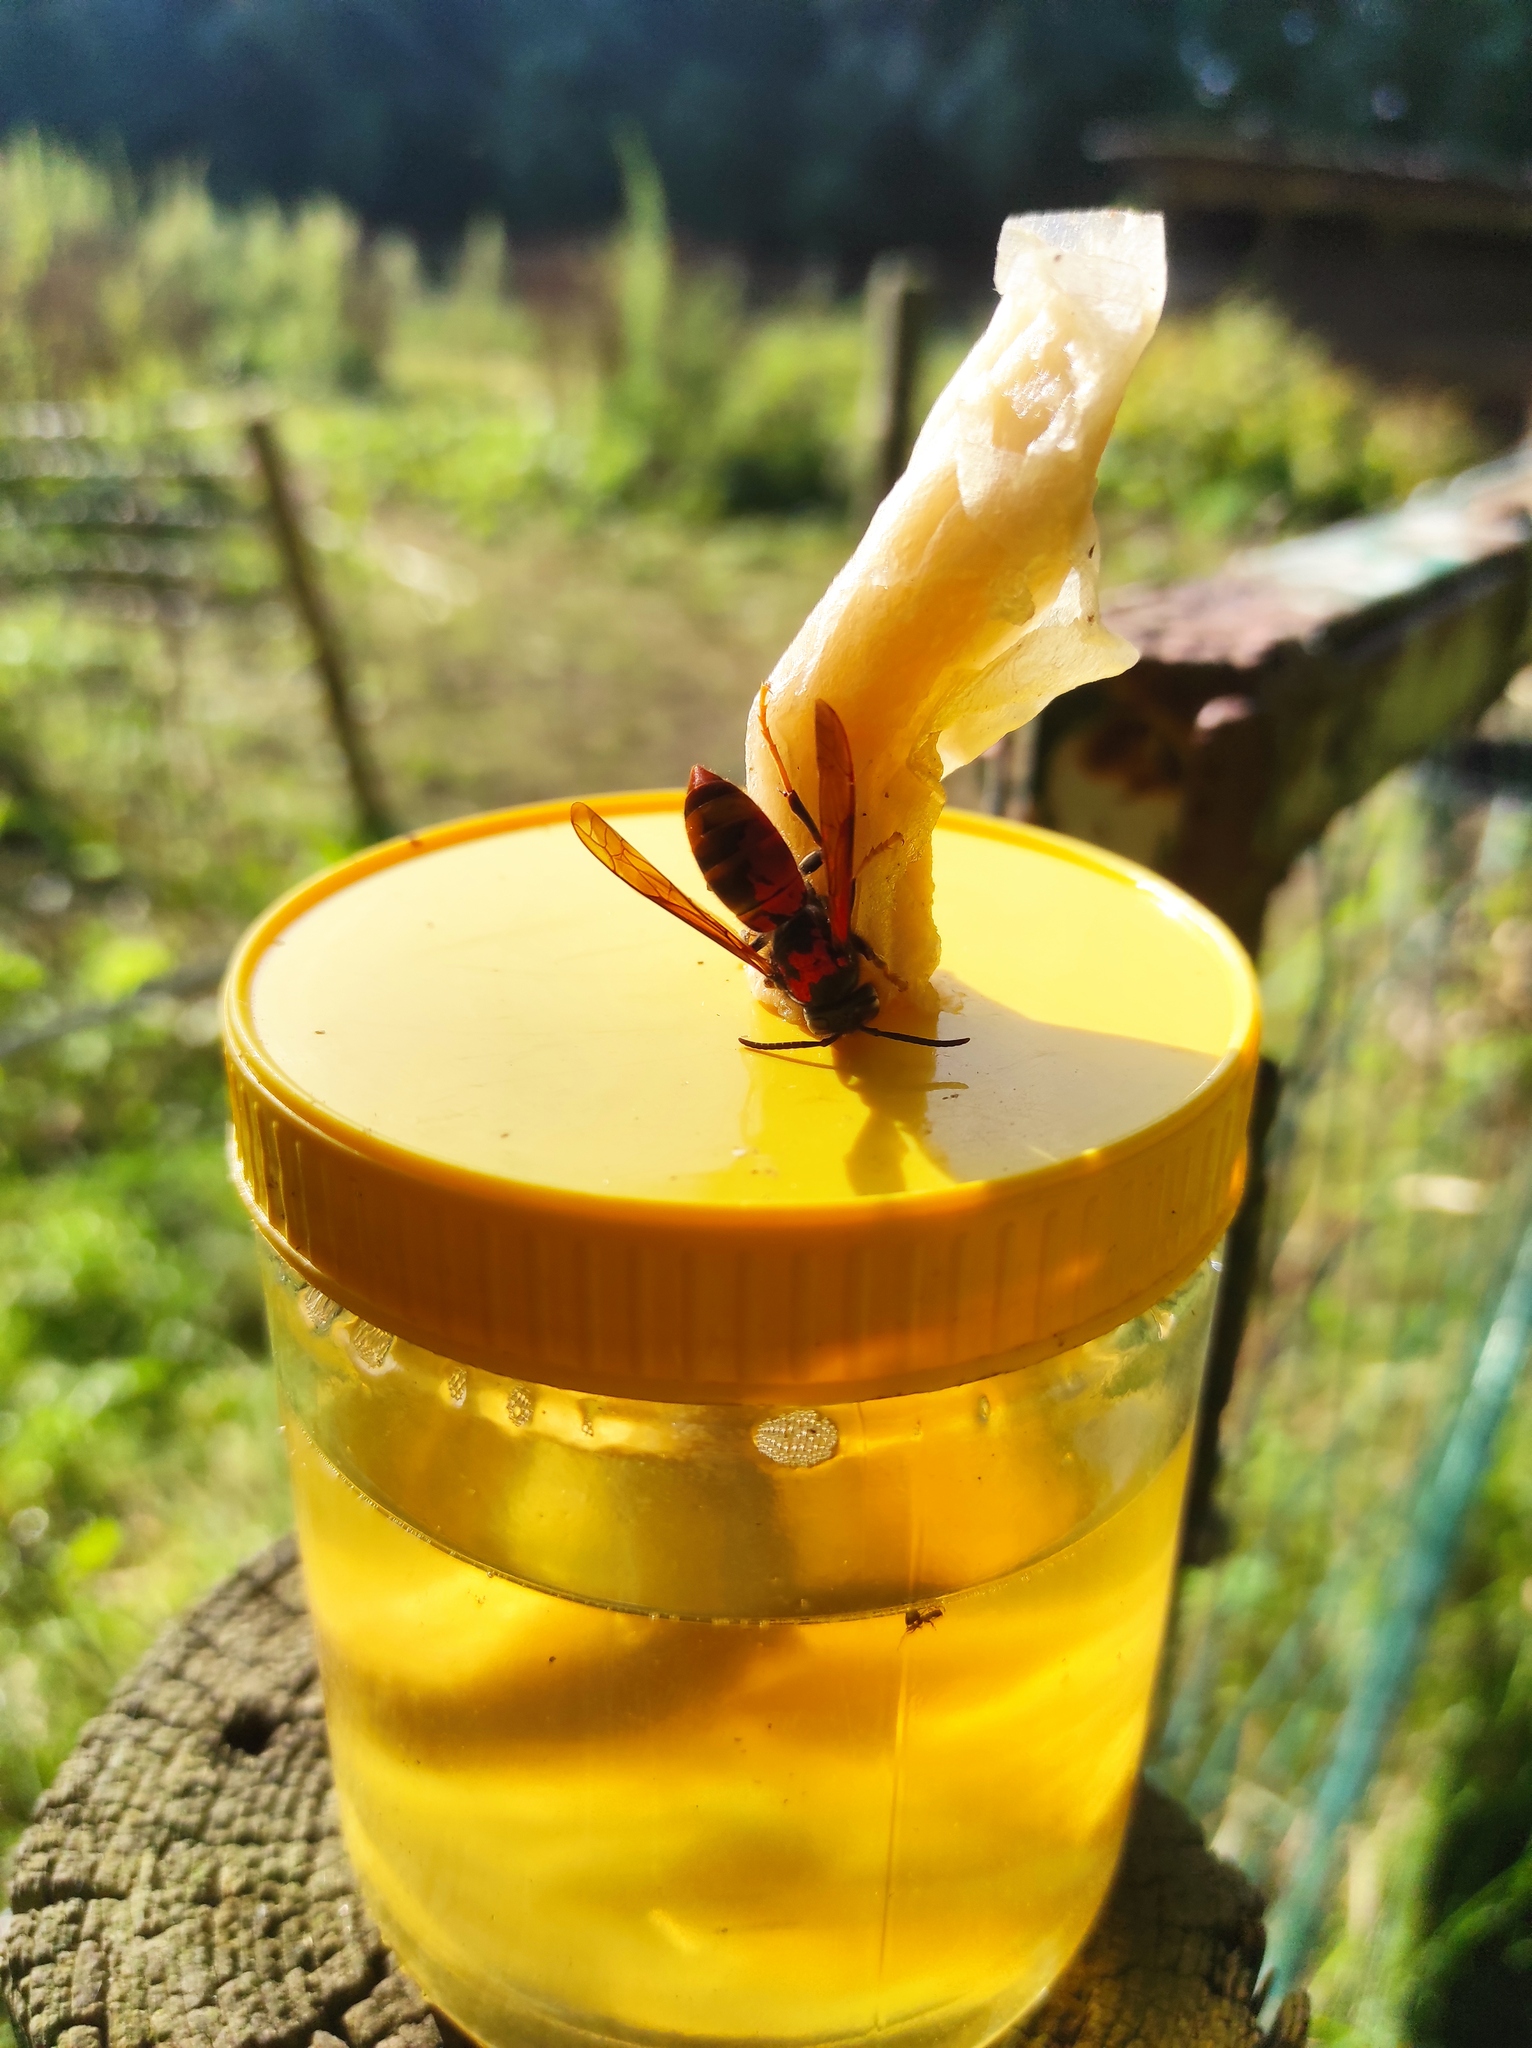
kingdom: Animalia
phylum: Arthropoda
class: Insecta
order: Hymenoptera
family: Vespidae
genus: Vespa
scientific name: Vespa velutina
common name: Asian hornet
